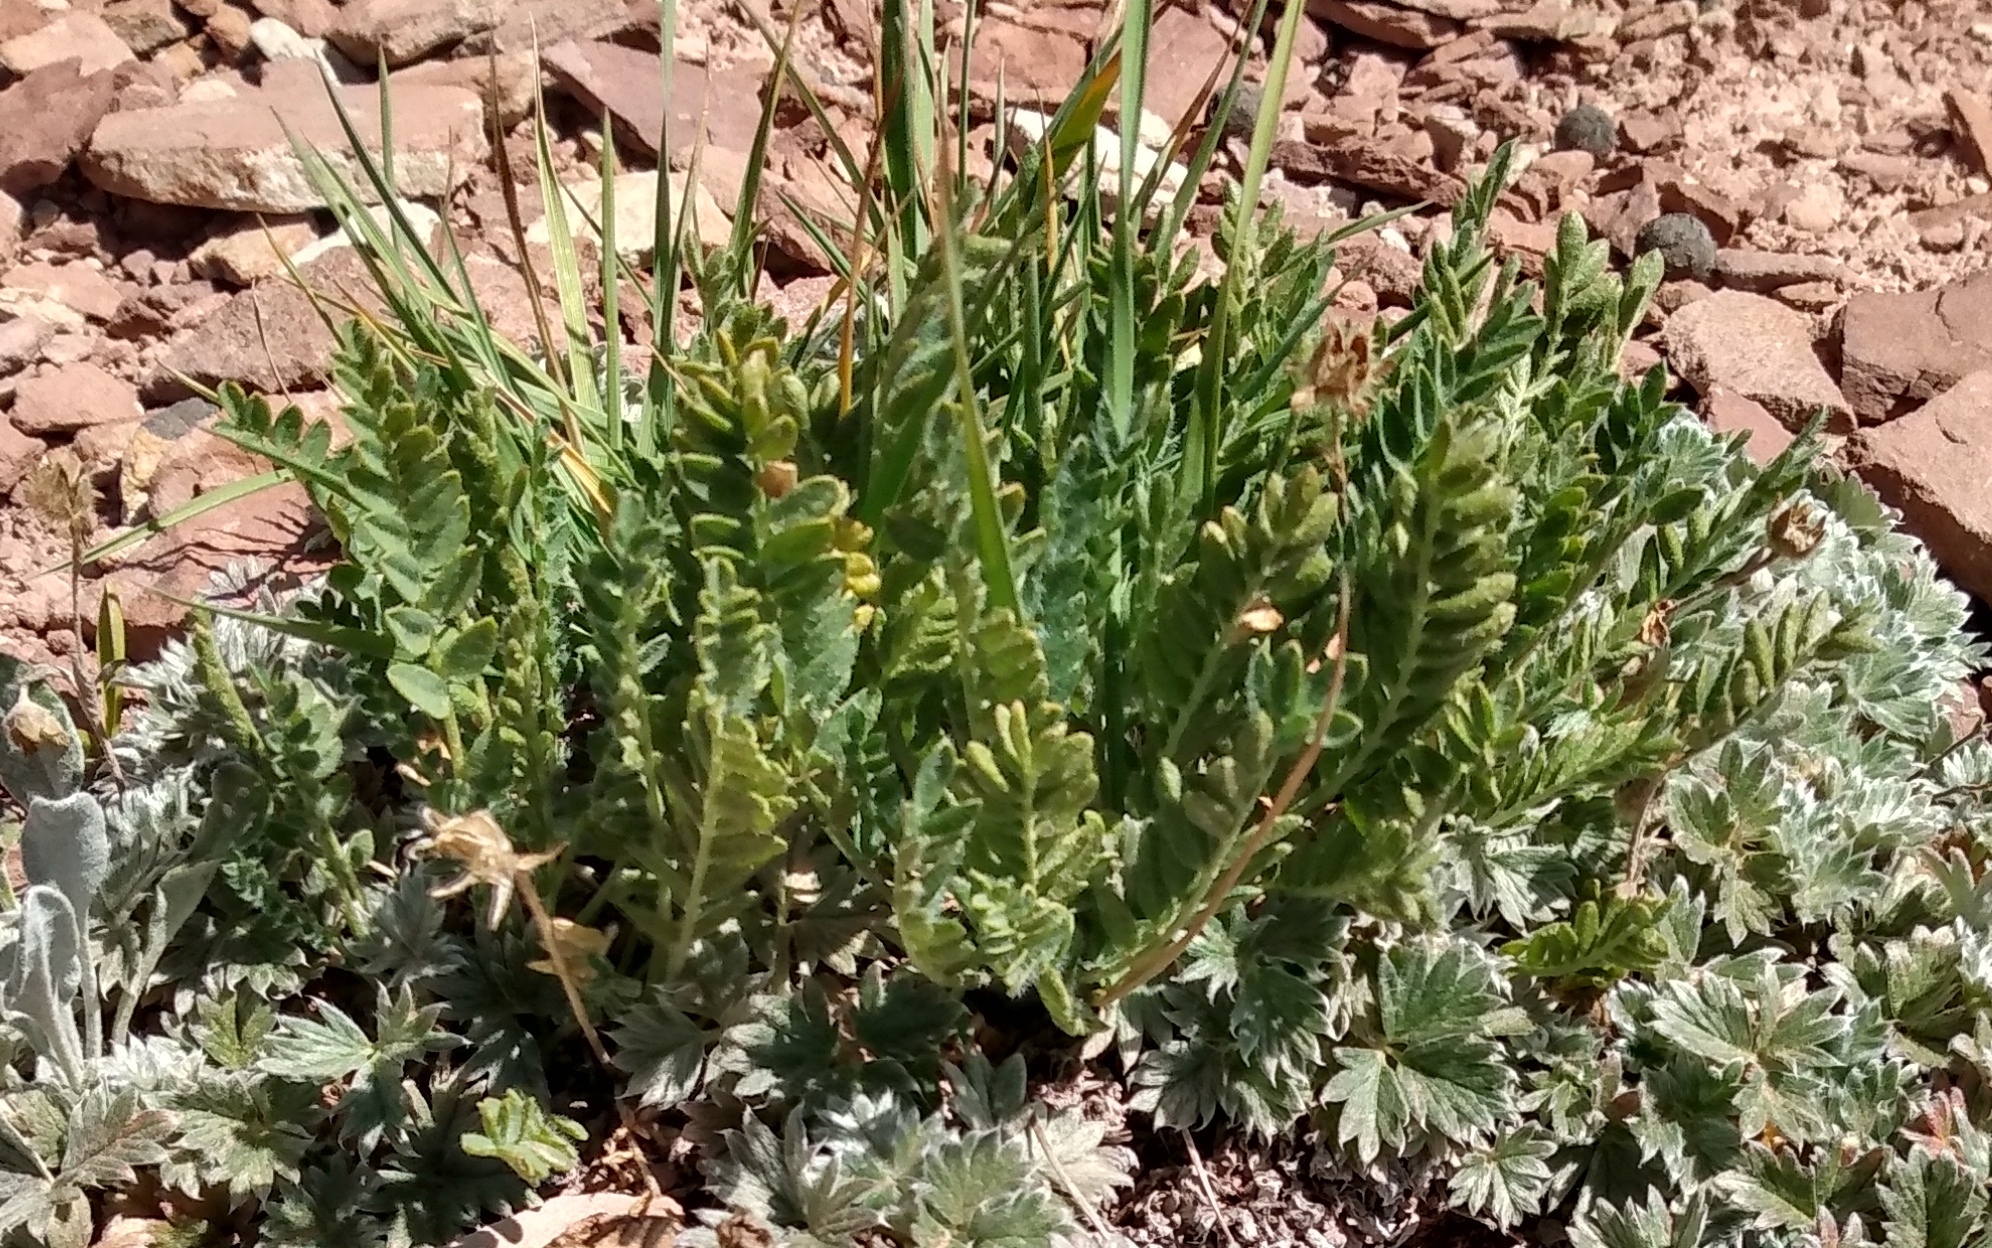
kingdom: Plantae
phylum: Tracheophyta
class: Magnoliopsida
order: Rosales
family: Rosaceae
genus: Geum
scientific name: Geum rossii
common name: Alpine avens
